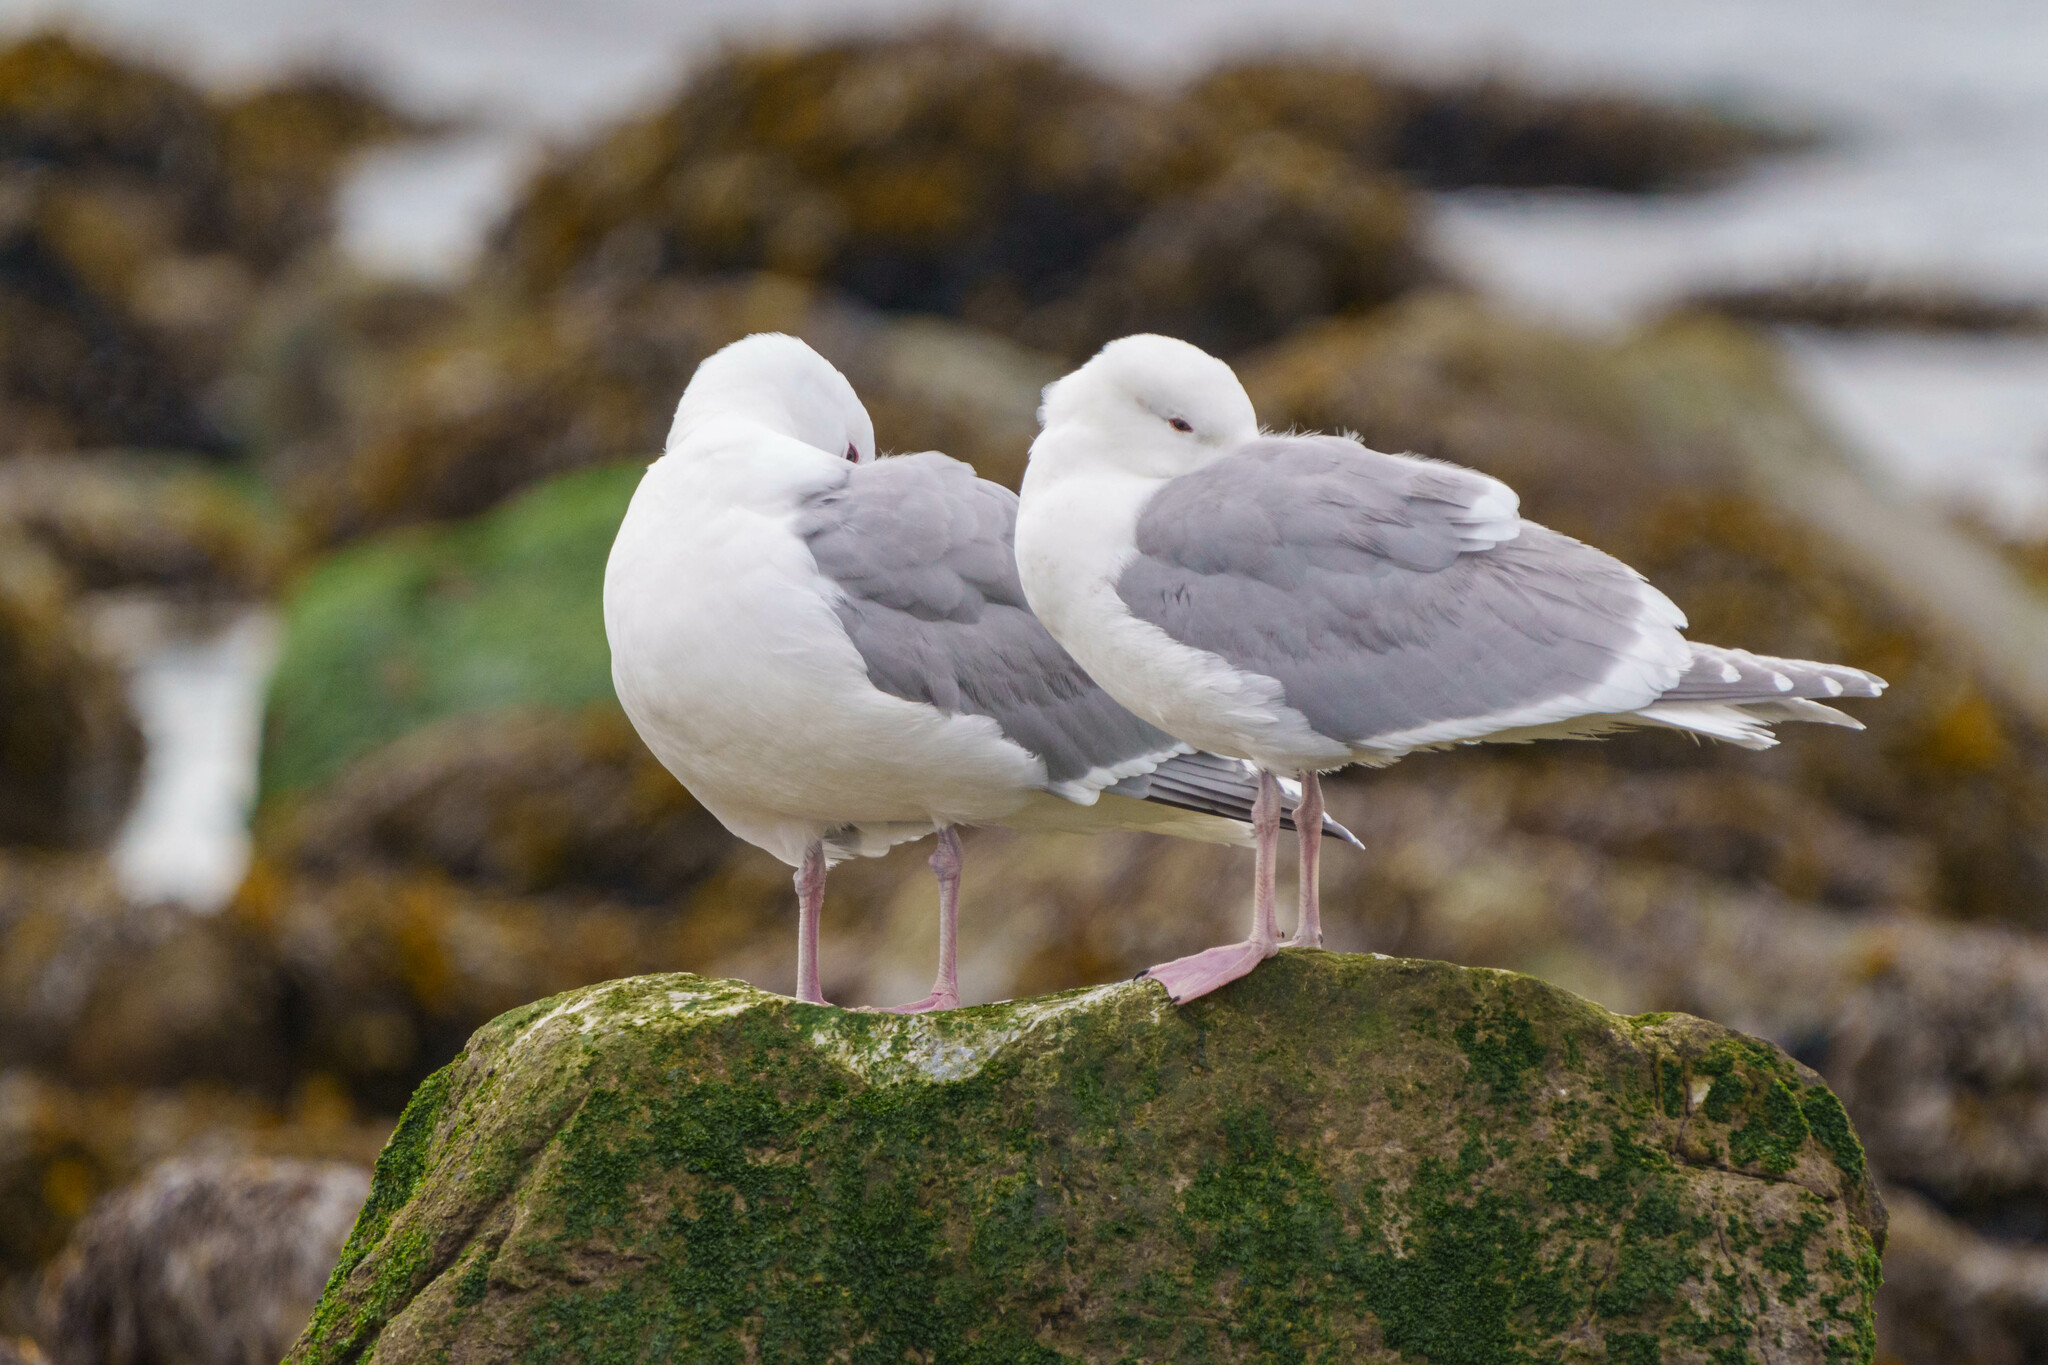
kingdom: Animalia
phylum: Chordata
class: Aves
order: Charadriiformes
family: Laridae
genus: Larus
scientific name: Larus glaucescens
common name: Glaucous-winged gull
